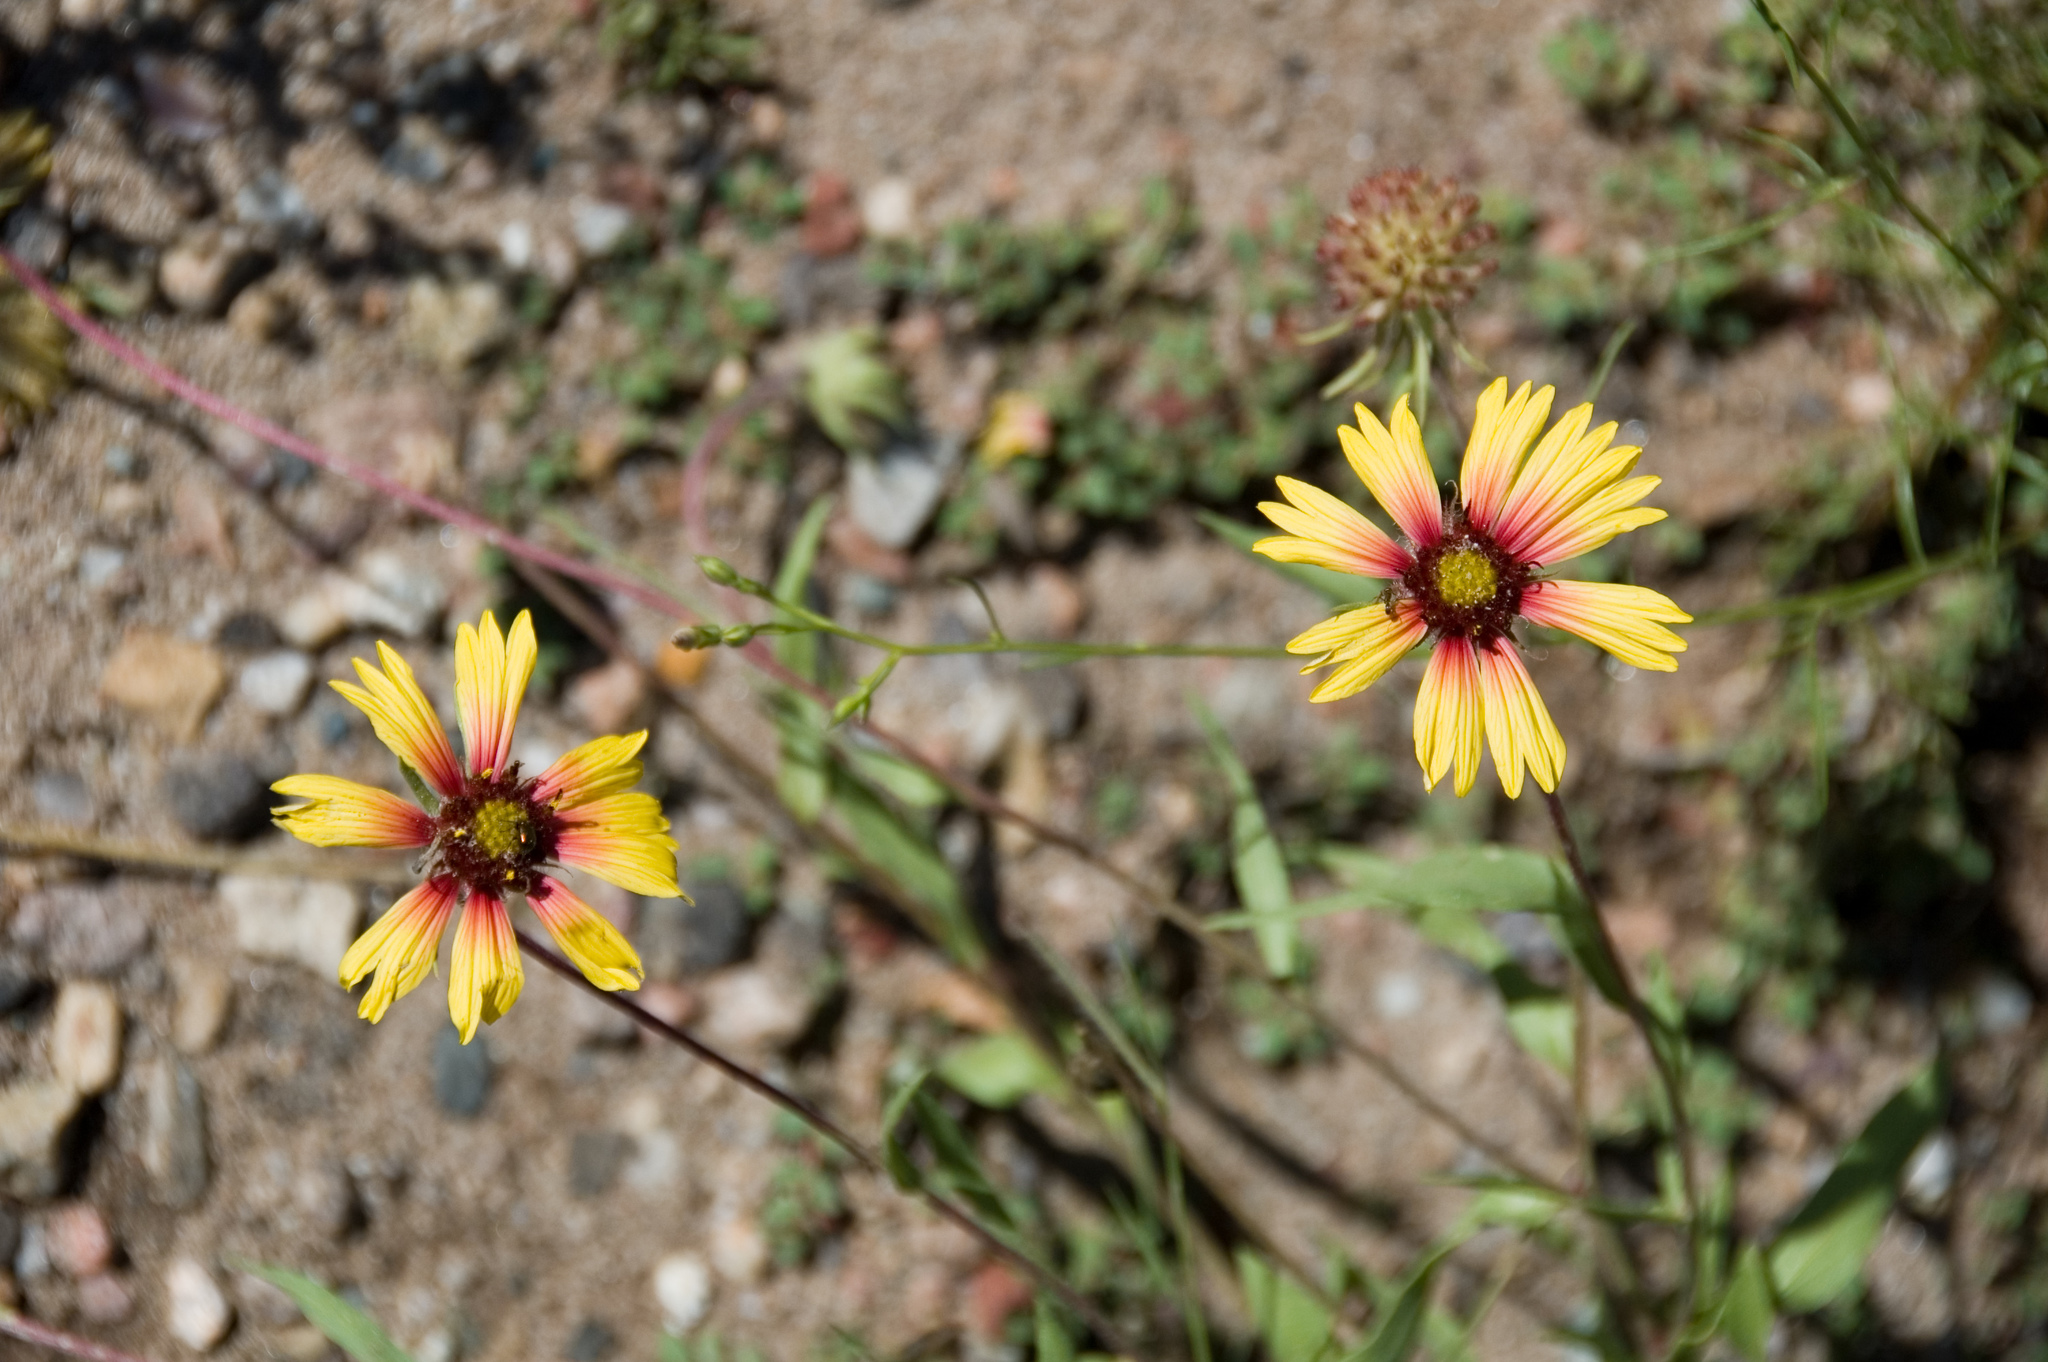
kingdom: Plantae
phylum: Tracheophyta
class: Magnoliopsida
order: Asterales
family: Asteraceae
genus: Gaillardia
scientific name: Gaillardia pulchella
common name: Firewheel
